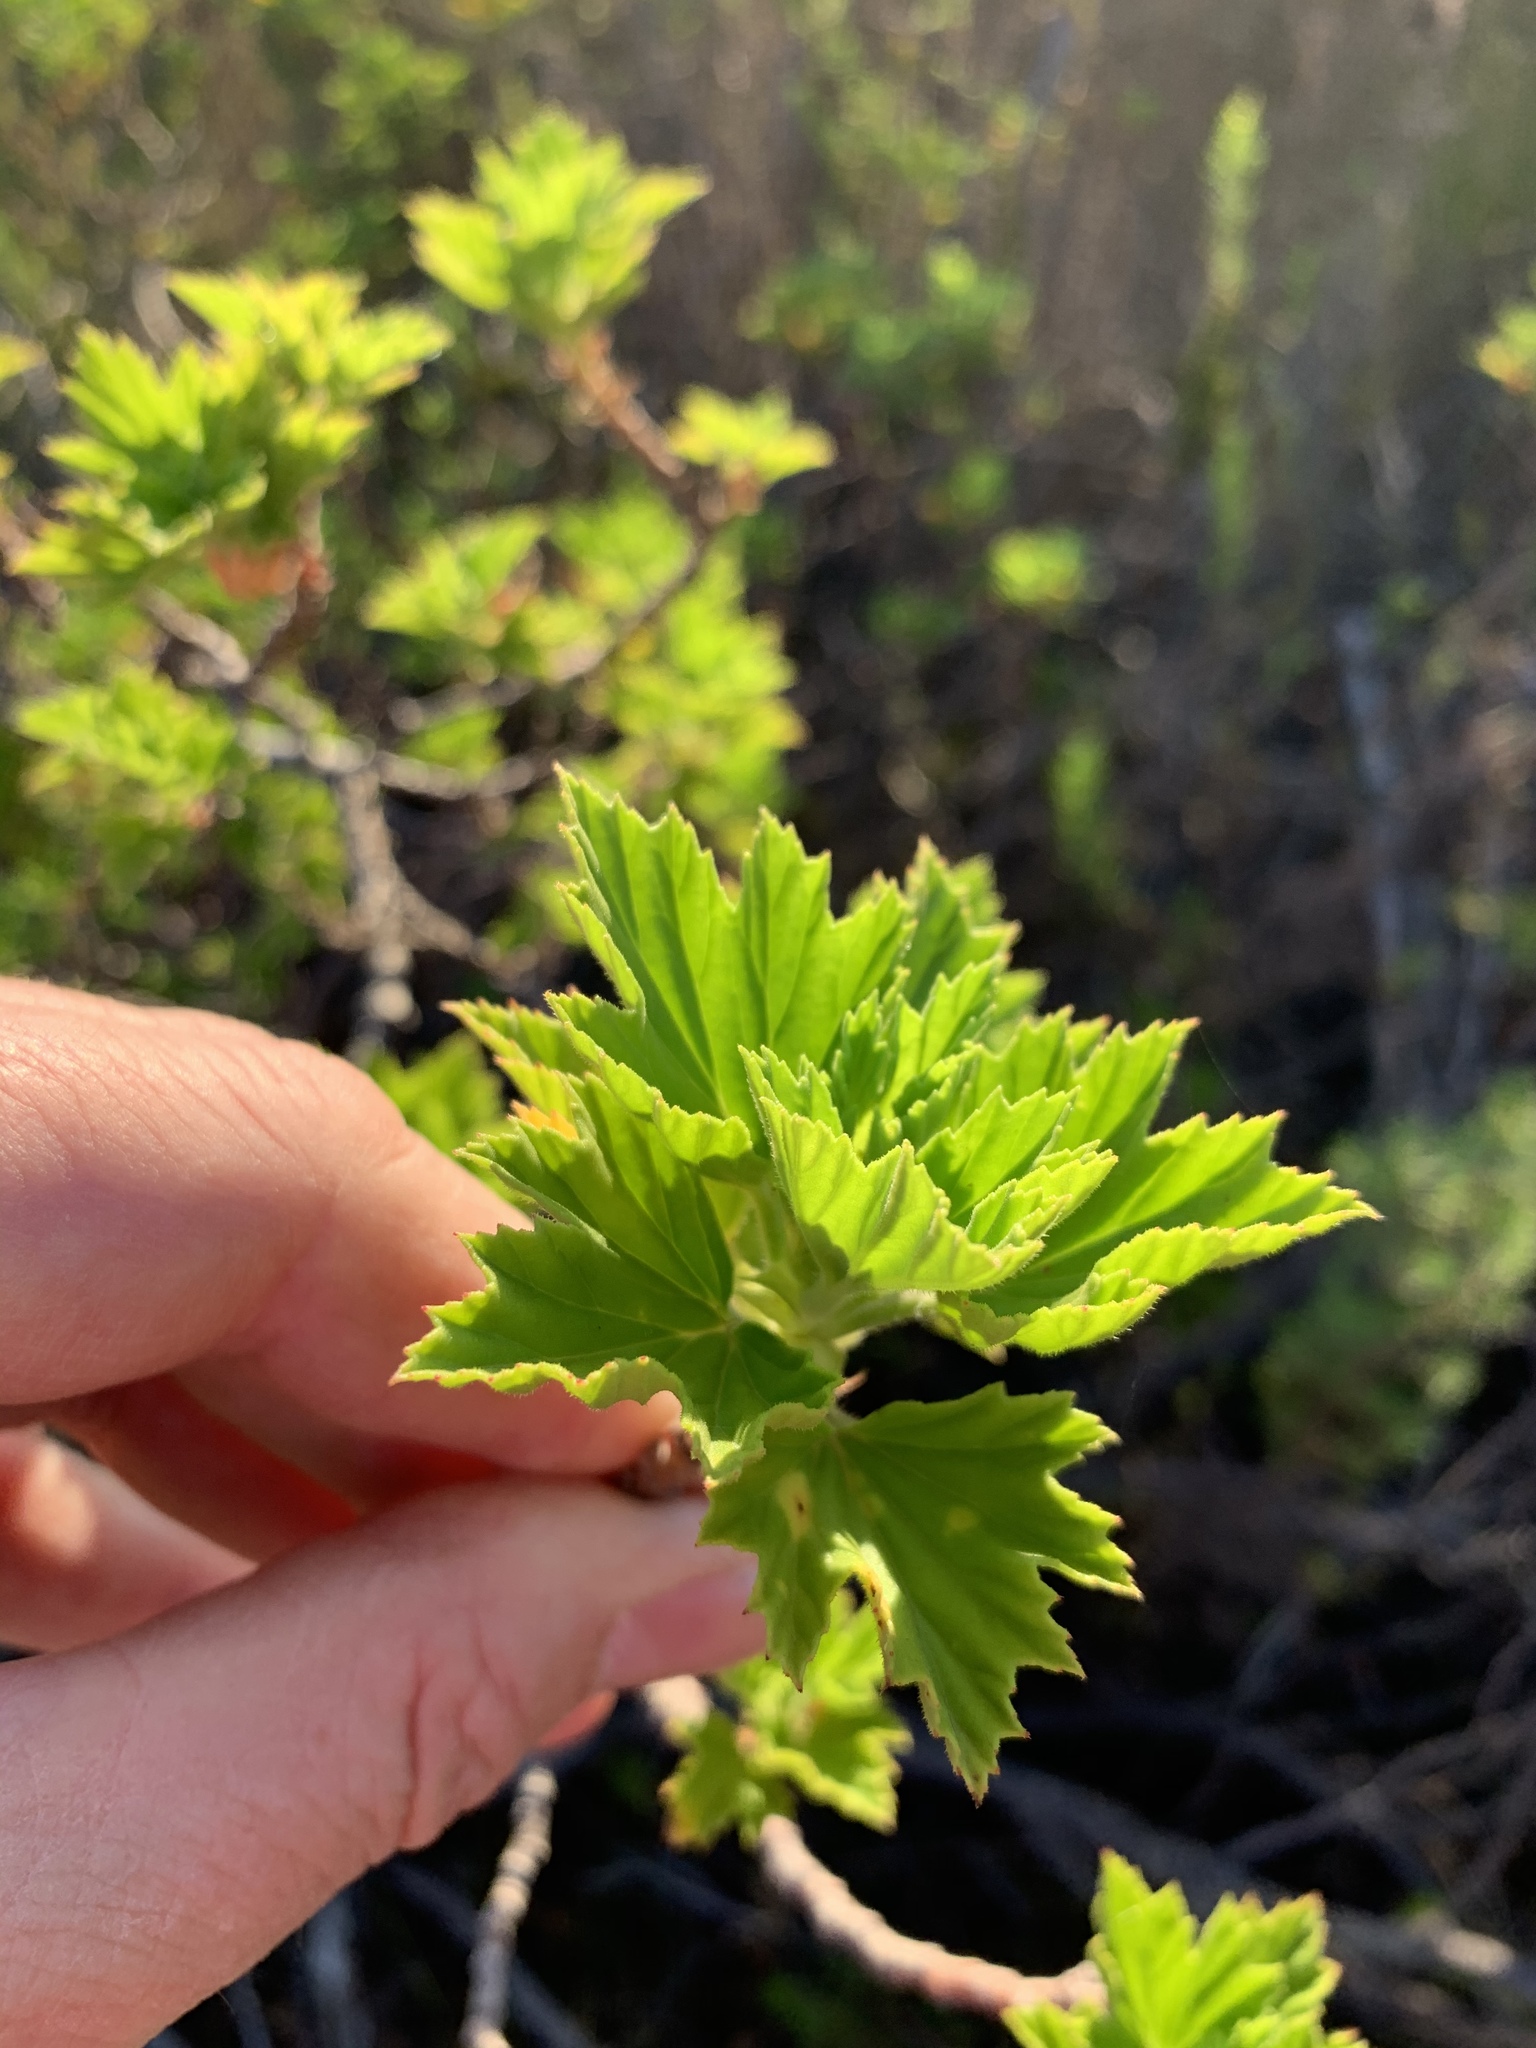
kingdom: Plantae
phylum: Tracheophyta
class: Magnoliopsida
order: Geraniales
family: Geraniaceae
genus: Pelargonium
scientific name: Pelargonium cucullatum
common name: Tree pelargonium
